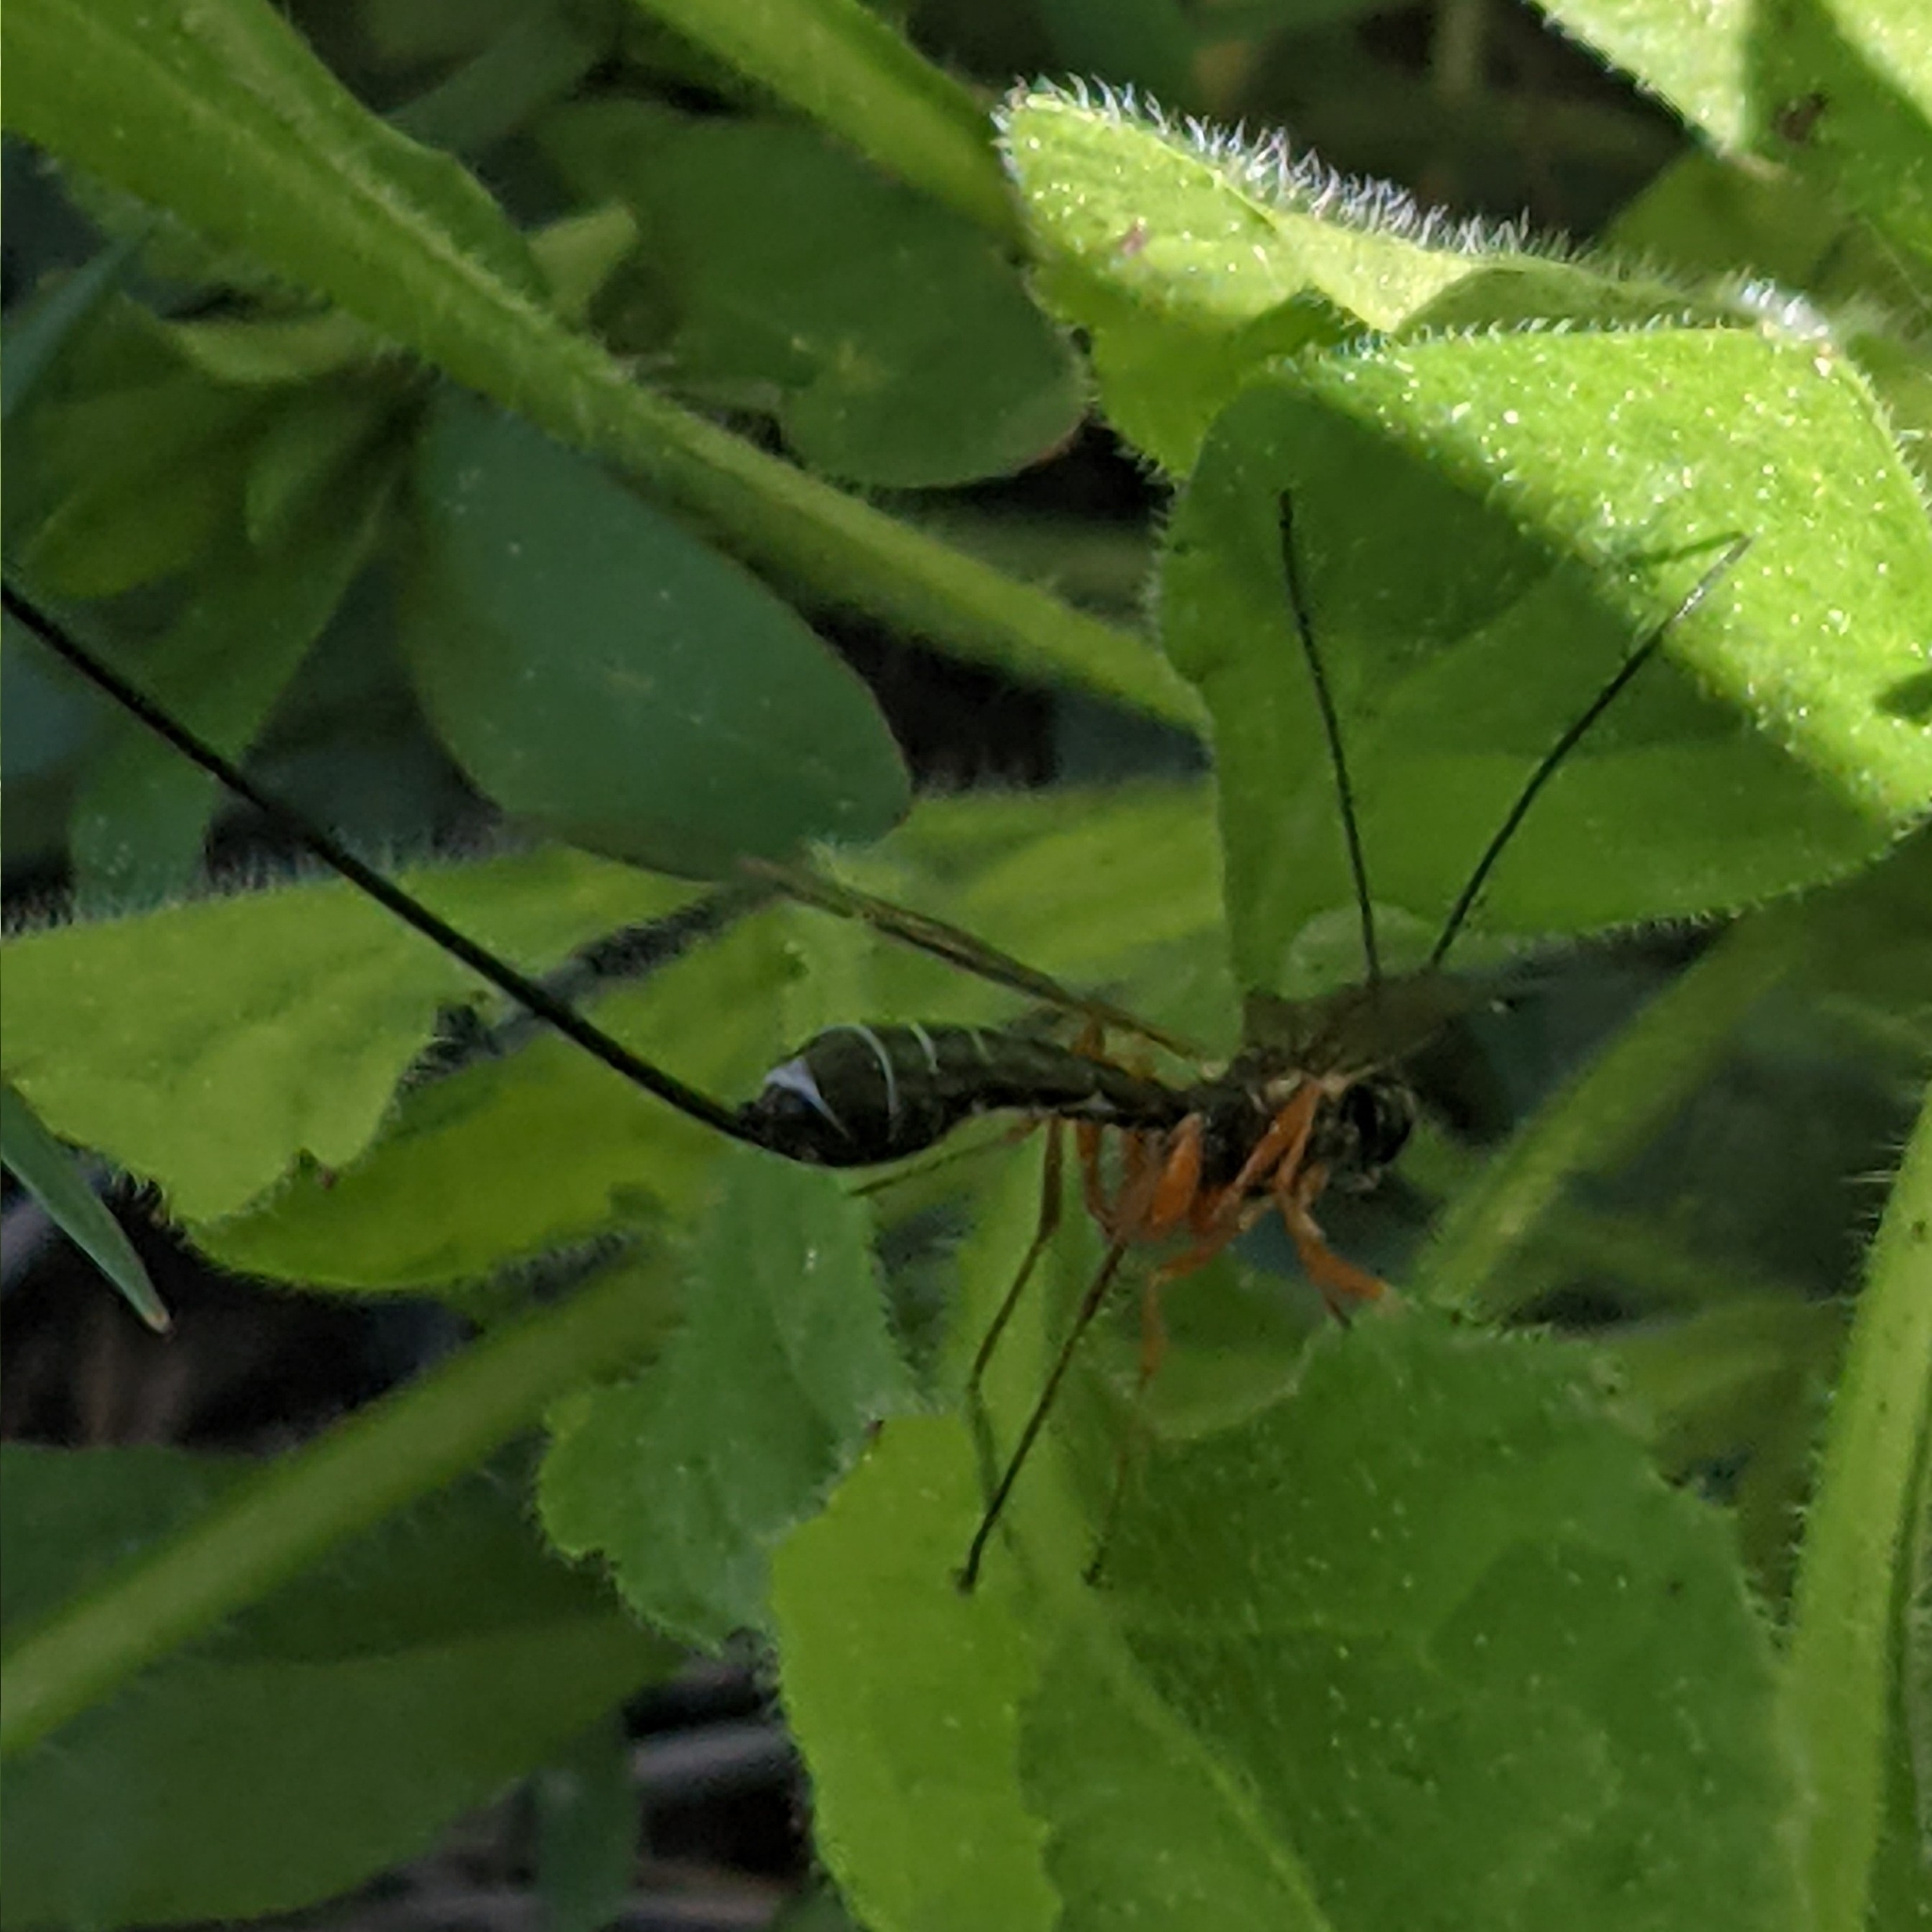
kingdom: Animalia
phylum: Arthropoda
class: Insecta
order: Hymenoptera
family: Ichneumonidae
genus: Coleocentrus
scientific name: Coleocentrus flavipes
